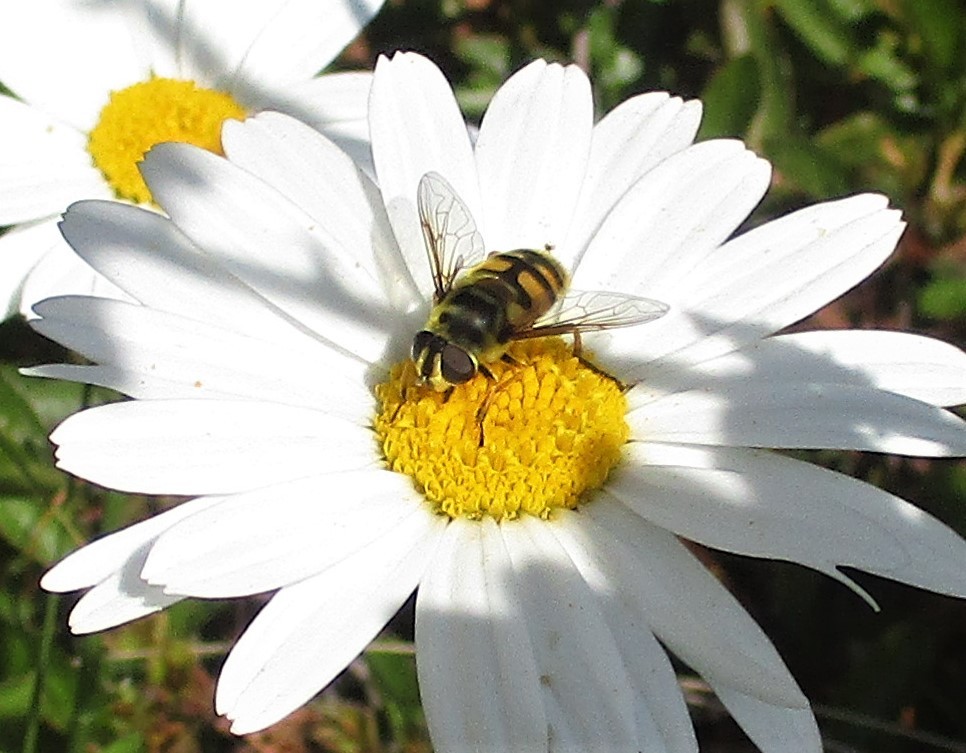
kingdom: Animalia
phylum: Arthropoda
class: Insecta
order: Diptera
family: Syrphidae
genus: Myathropa
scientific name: Myathropa florea
